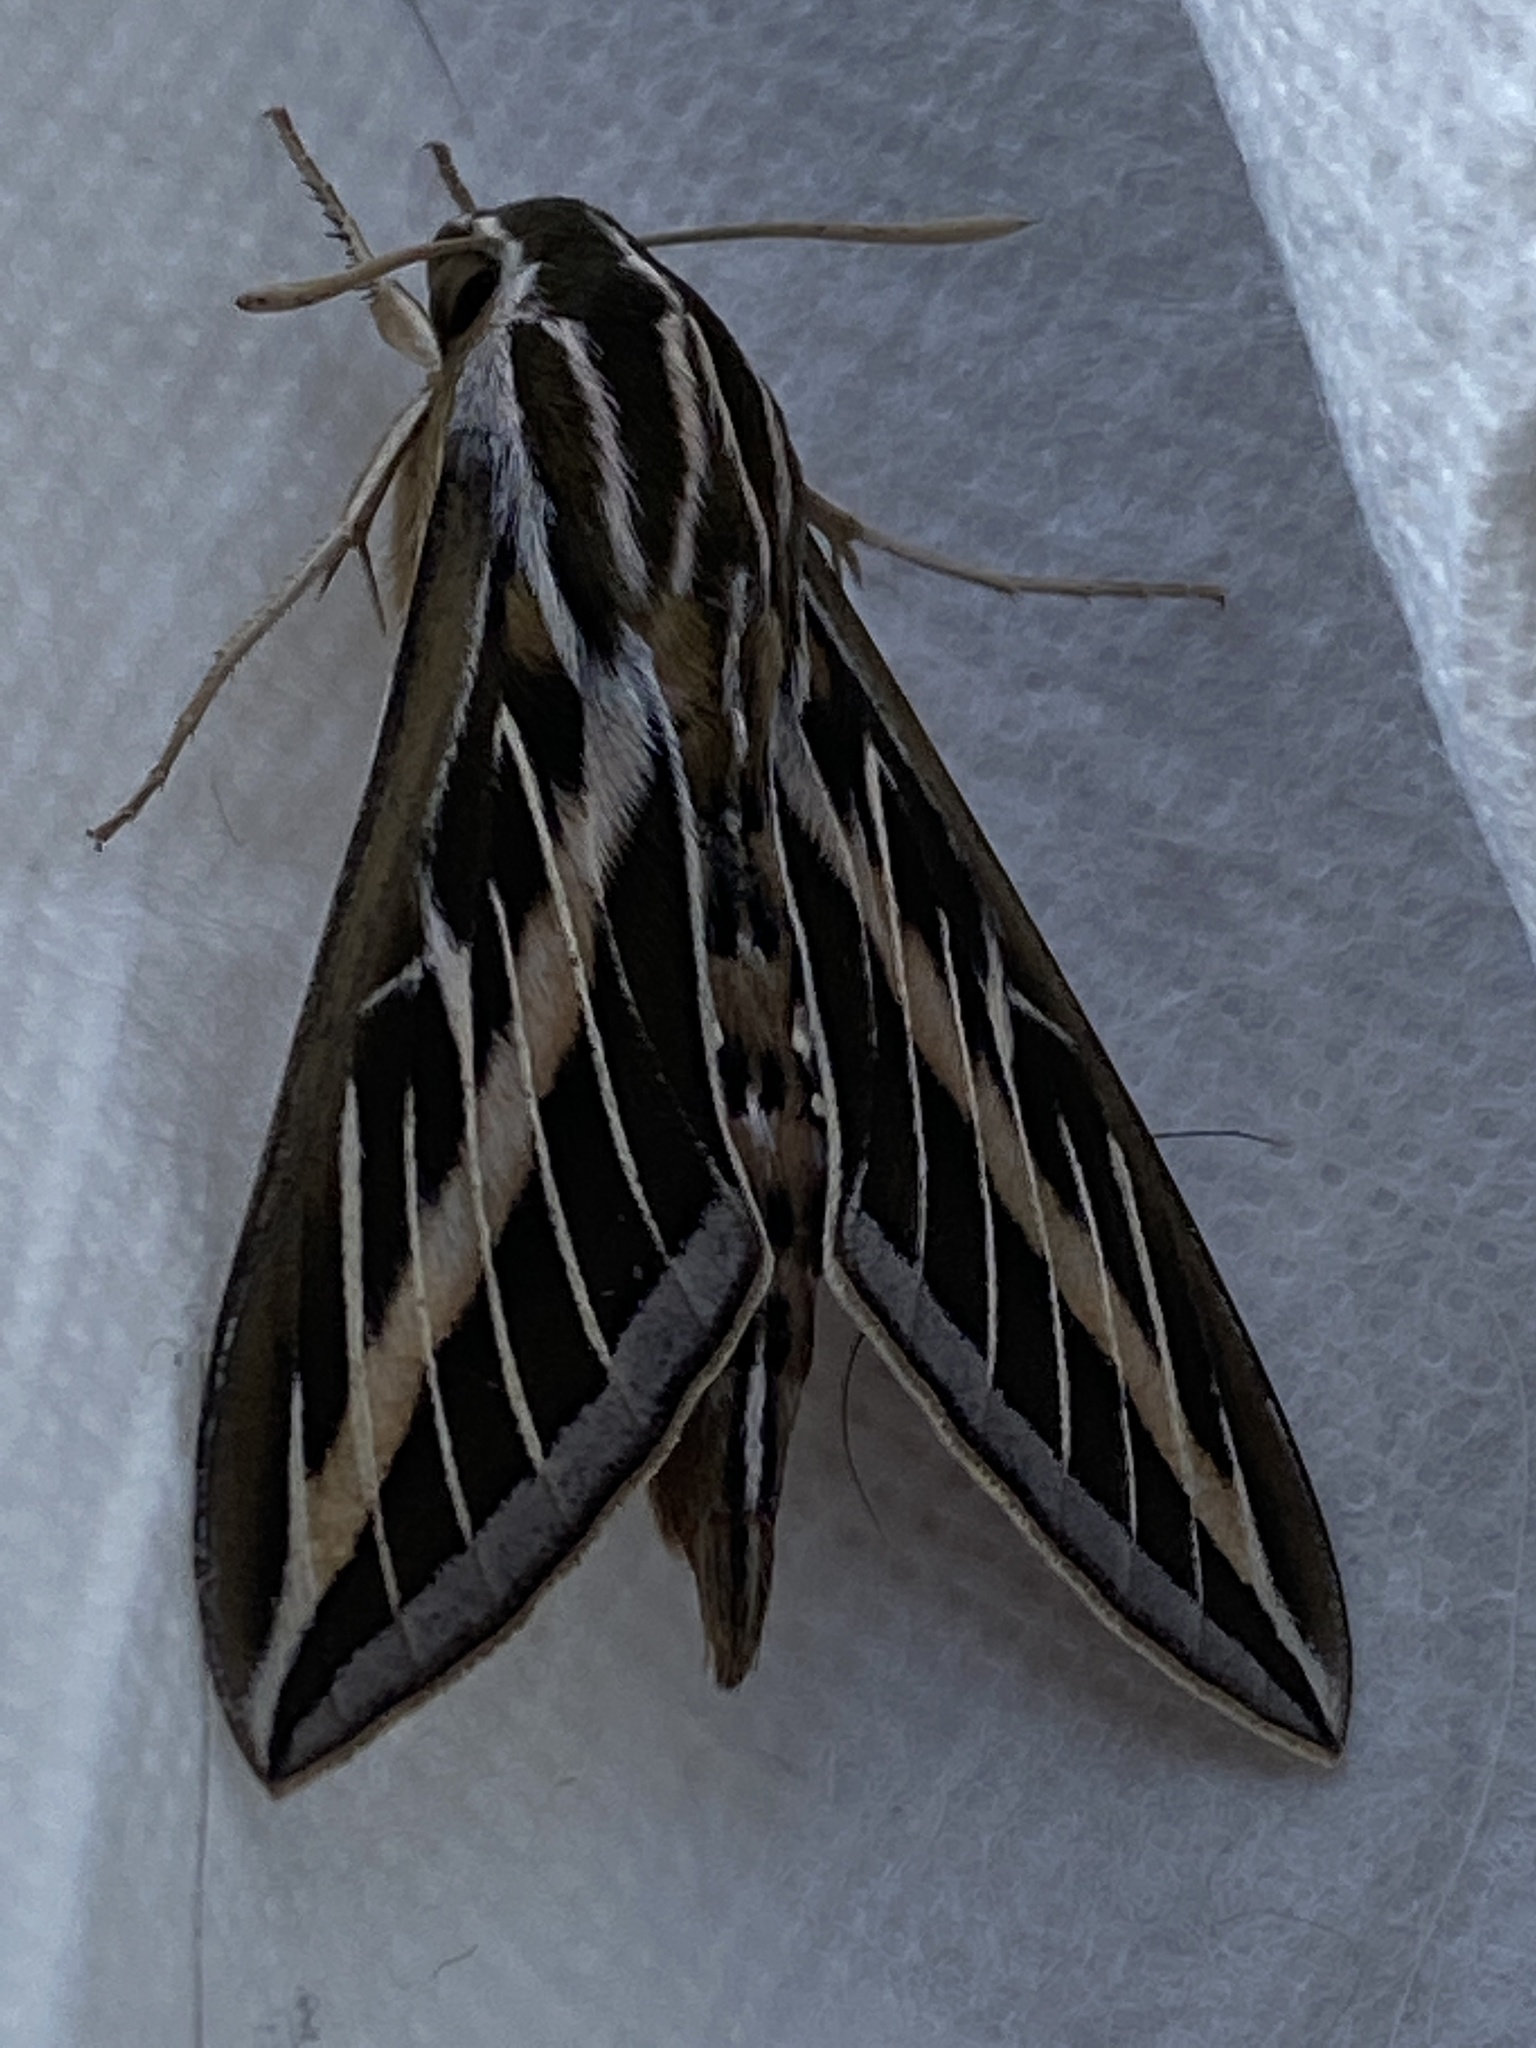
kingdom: Animalia
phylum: Arthropoda
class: Insecta
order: Lepidoptera
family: Sphingidae
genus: Hyles
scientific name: Hyles lineata
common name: White-lined sphinx
